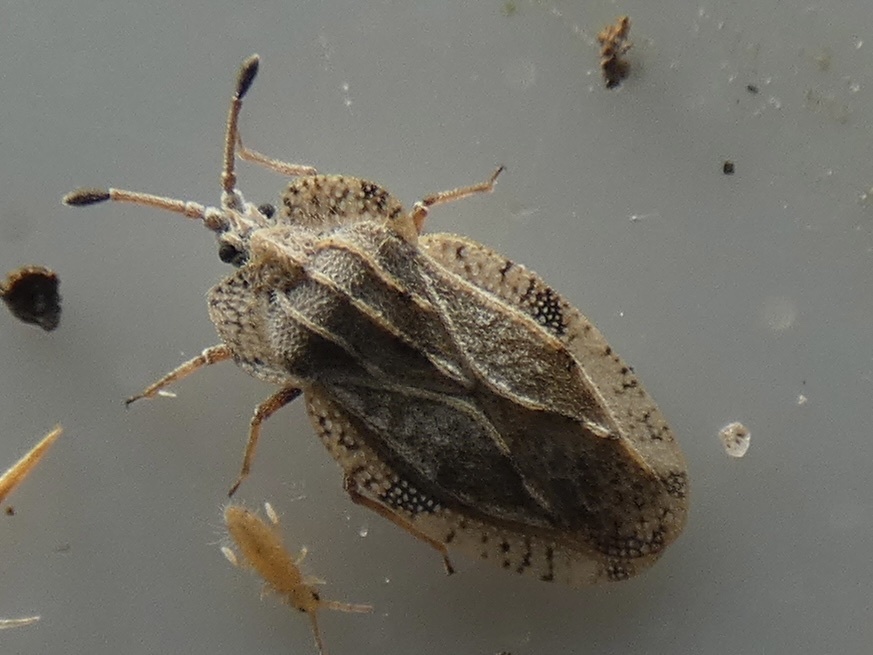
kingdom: Animalia
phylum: Arthropoda
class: Insecta
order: Hemiptera
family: Tingidae
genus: Tingis
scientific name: Tingis ampliata
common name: Creeping thistle lacebug
